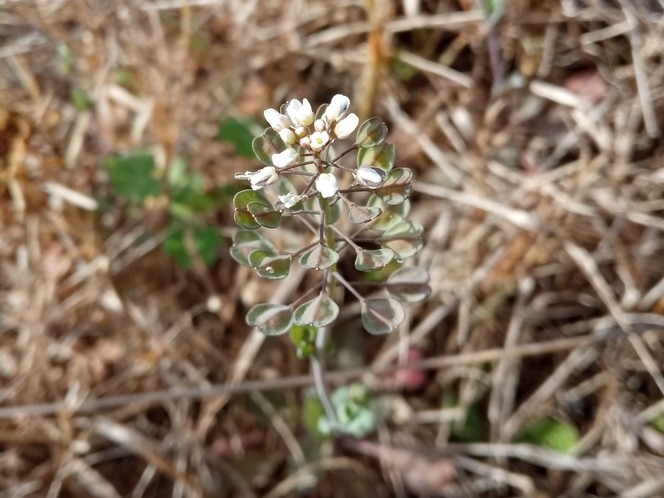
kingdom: Plantae
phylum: Tracheophyta
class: Magnoliopsida
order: Brassicales
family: Brassicaceae
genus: Noccaea
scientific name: Noccaea perfoliata
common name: Perfoliate pennycress
